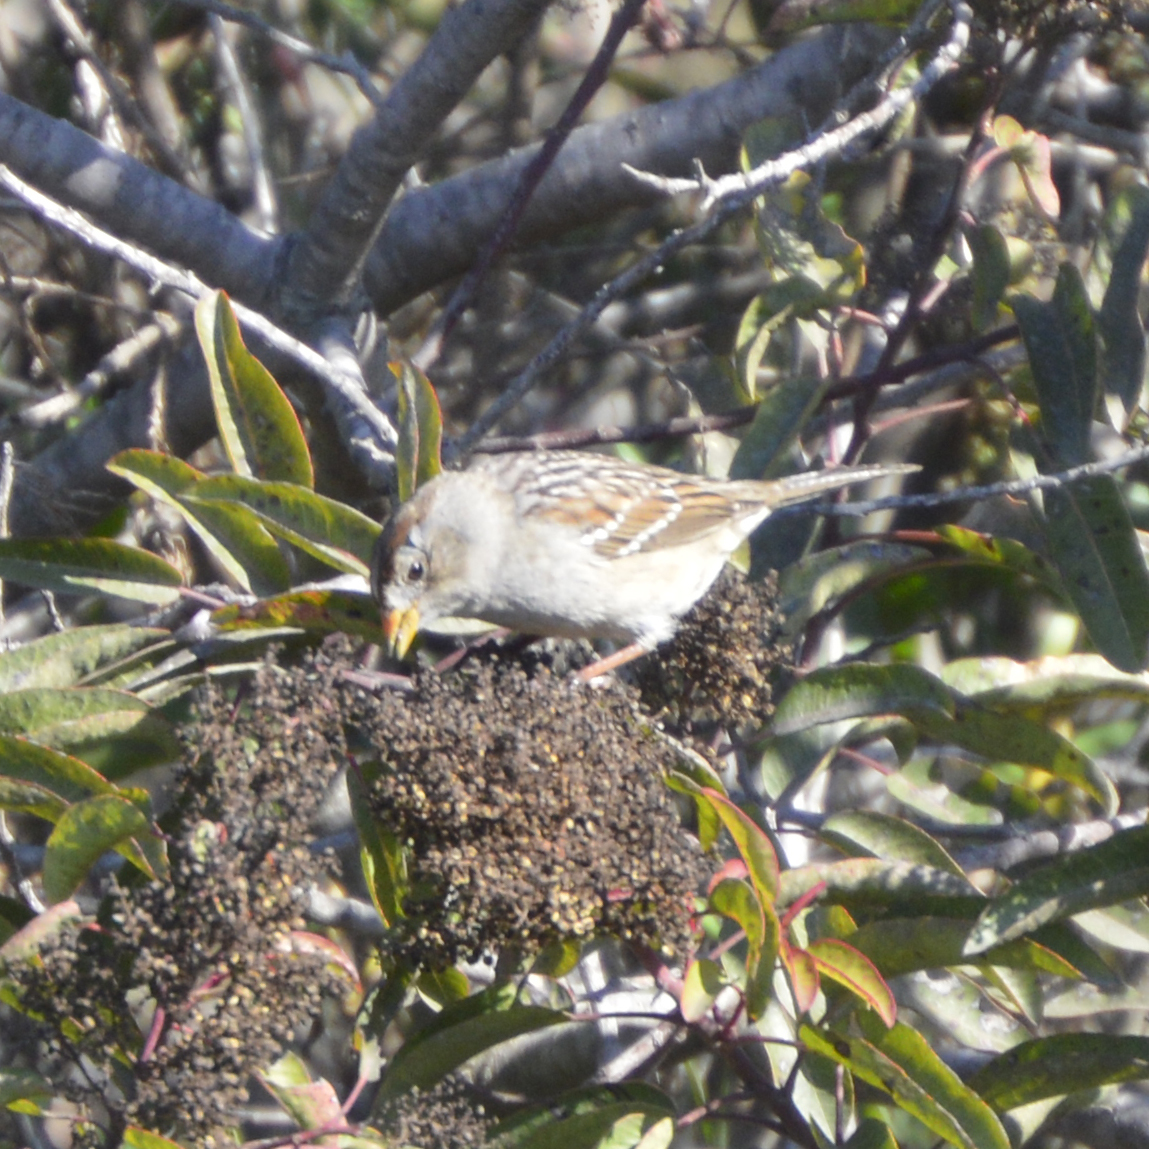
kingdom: Animalia
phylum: Chordata
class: Aves
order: Passeriformes
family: Passerellidae
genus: Zonotrichia
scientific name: Zonotrichia leucophrys
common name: White-crowned sparrow
